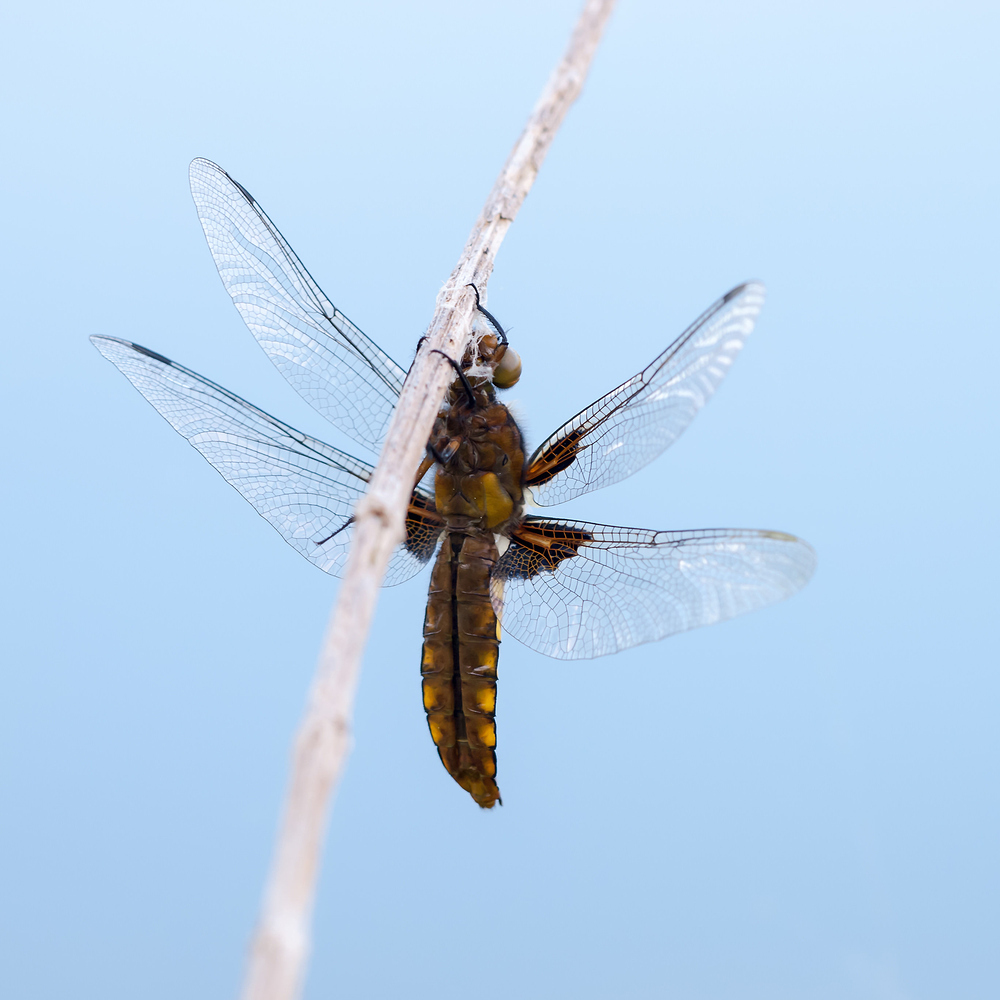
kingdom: Animalia
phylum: Arthropoda
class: Insecta
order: Odonata
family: Libellulidae
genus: Libellula
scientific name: Libellula depressa
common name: Broad-bodied chaser
